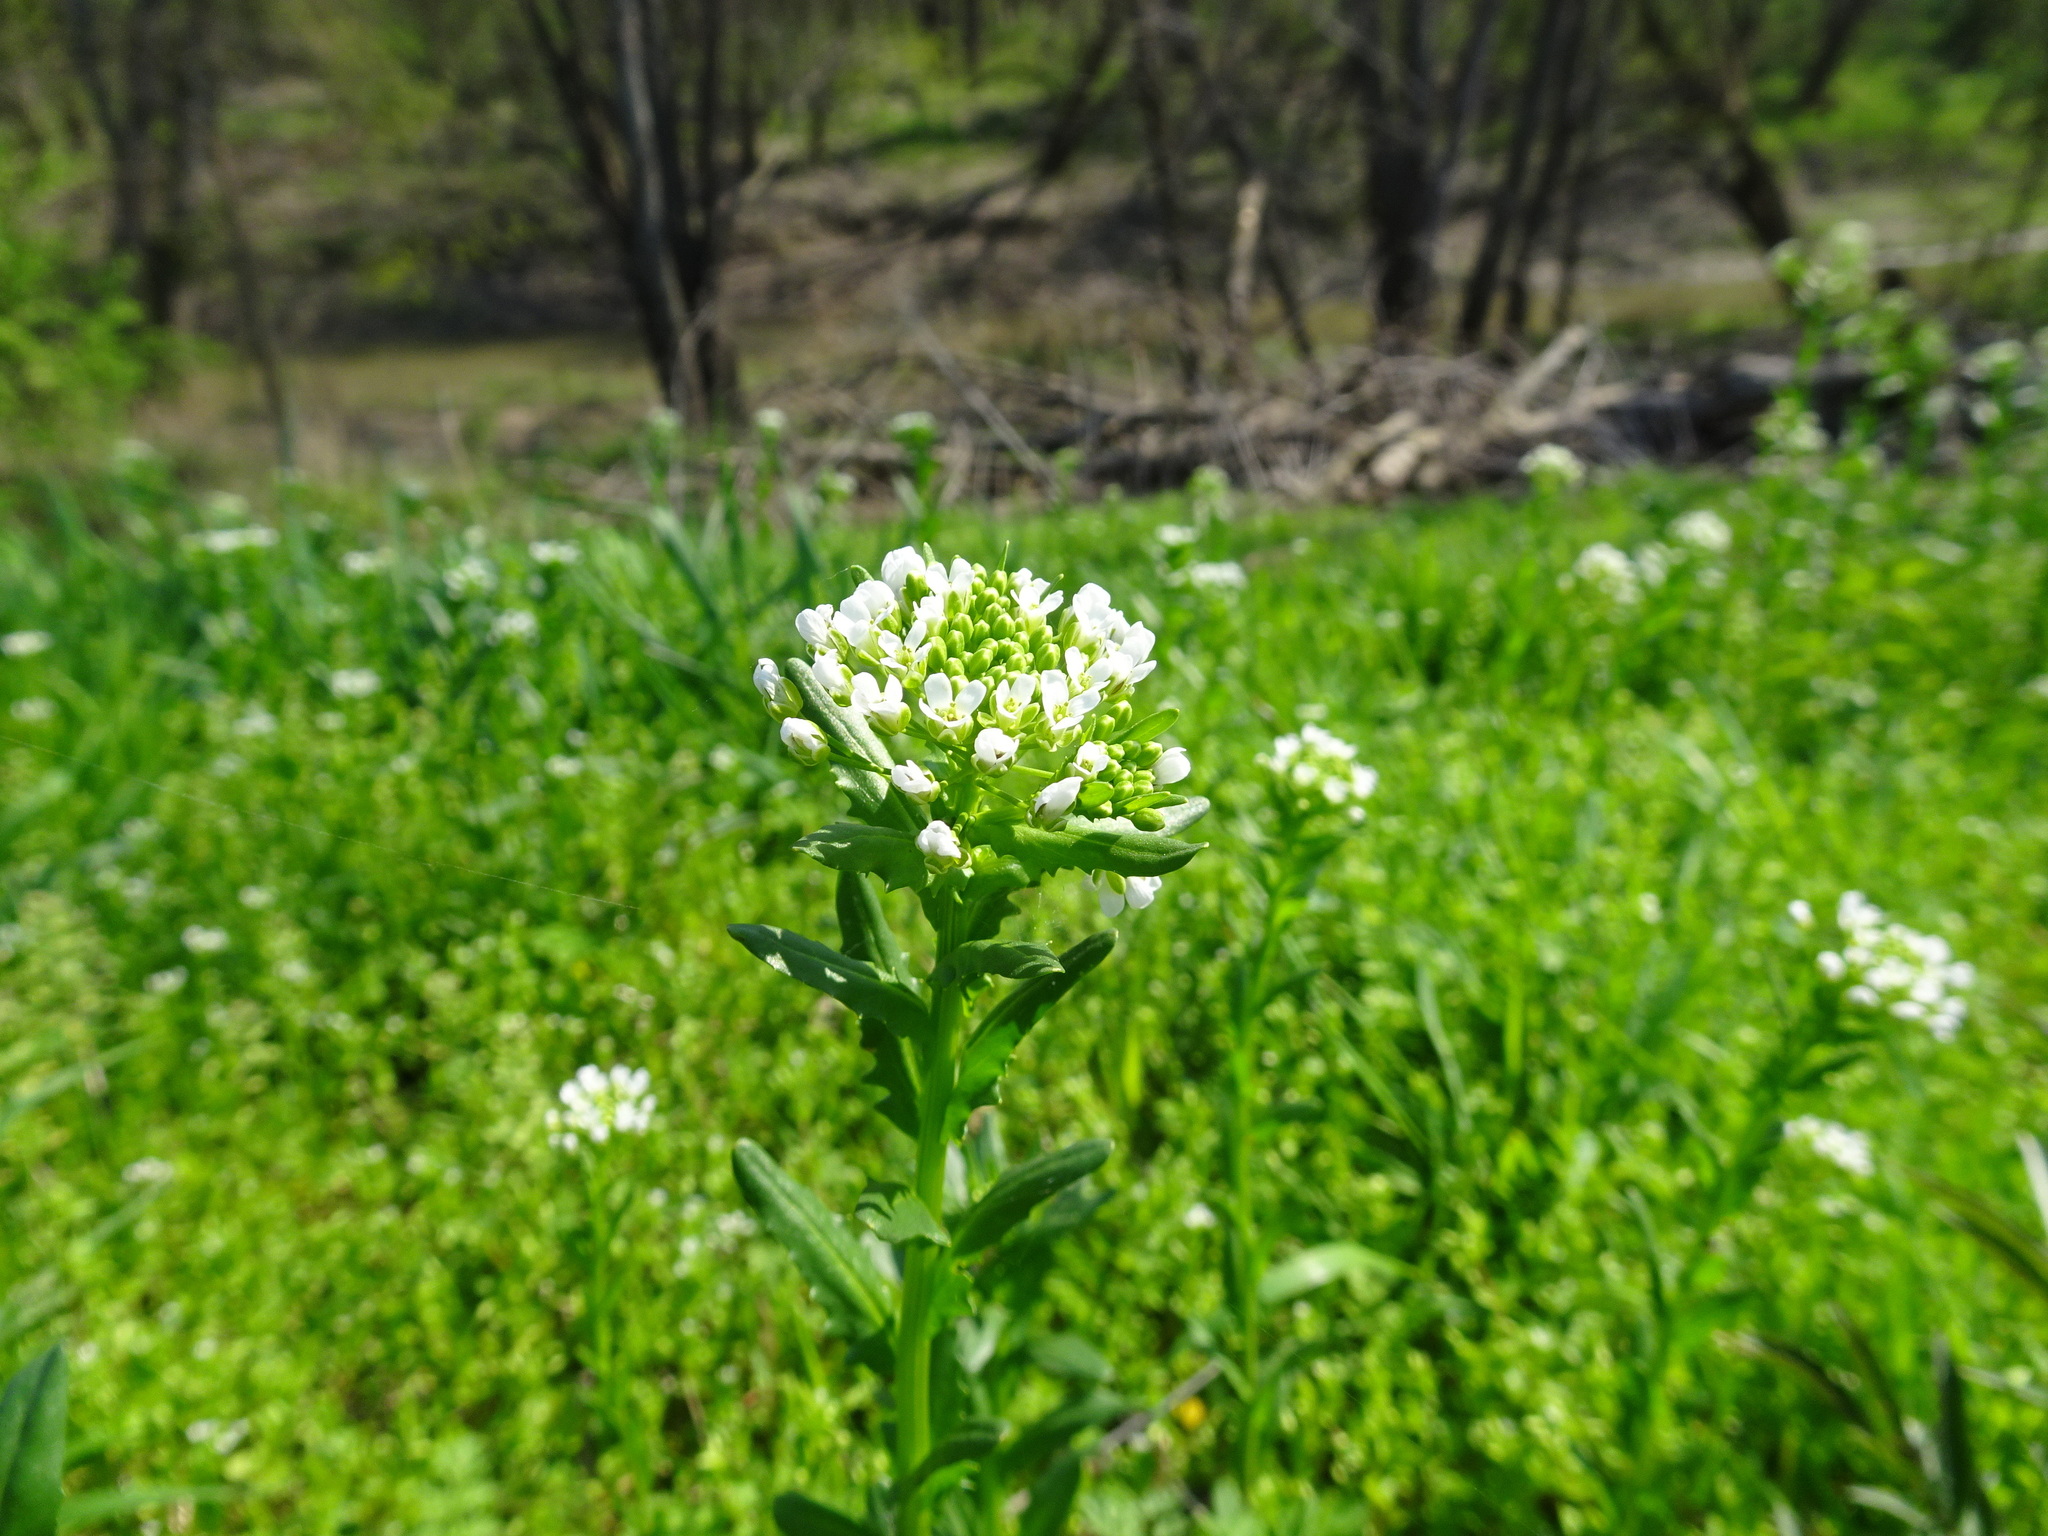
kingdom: Plantae
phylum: Tracheophyta
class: Magnoliopsida
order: Brassicales
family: Brassicaceae
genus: Thlaspi
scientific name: Thlaspi arvense
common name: Field pennycress
